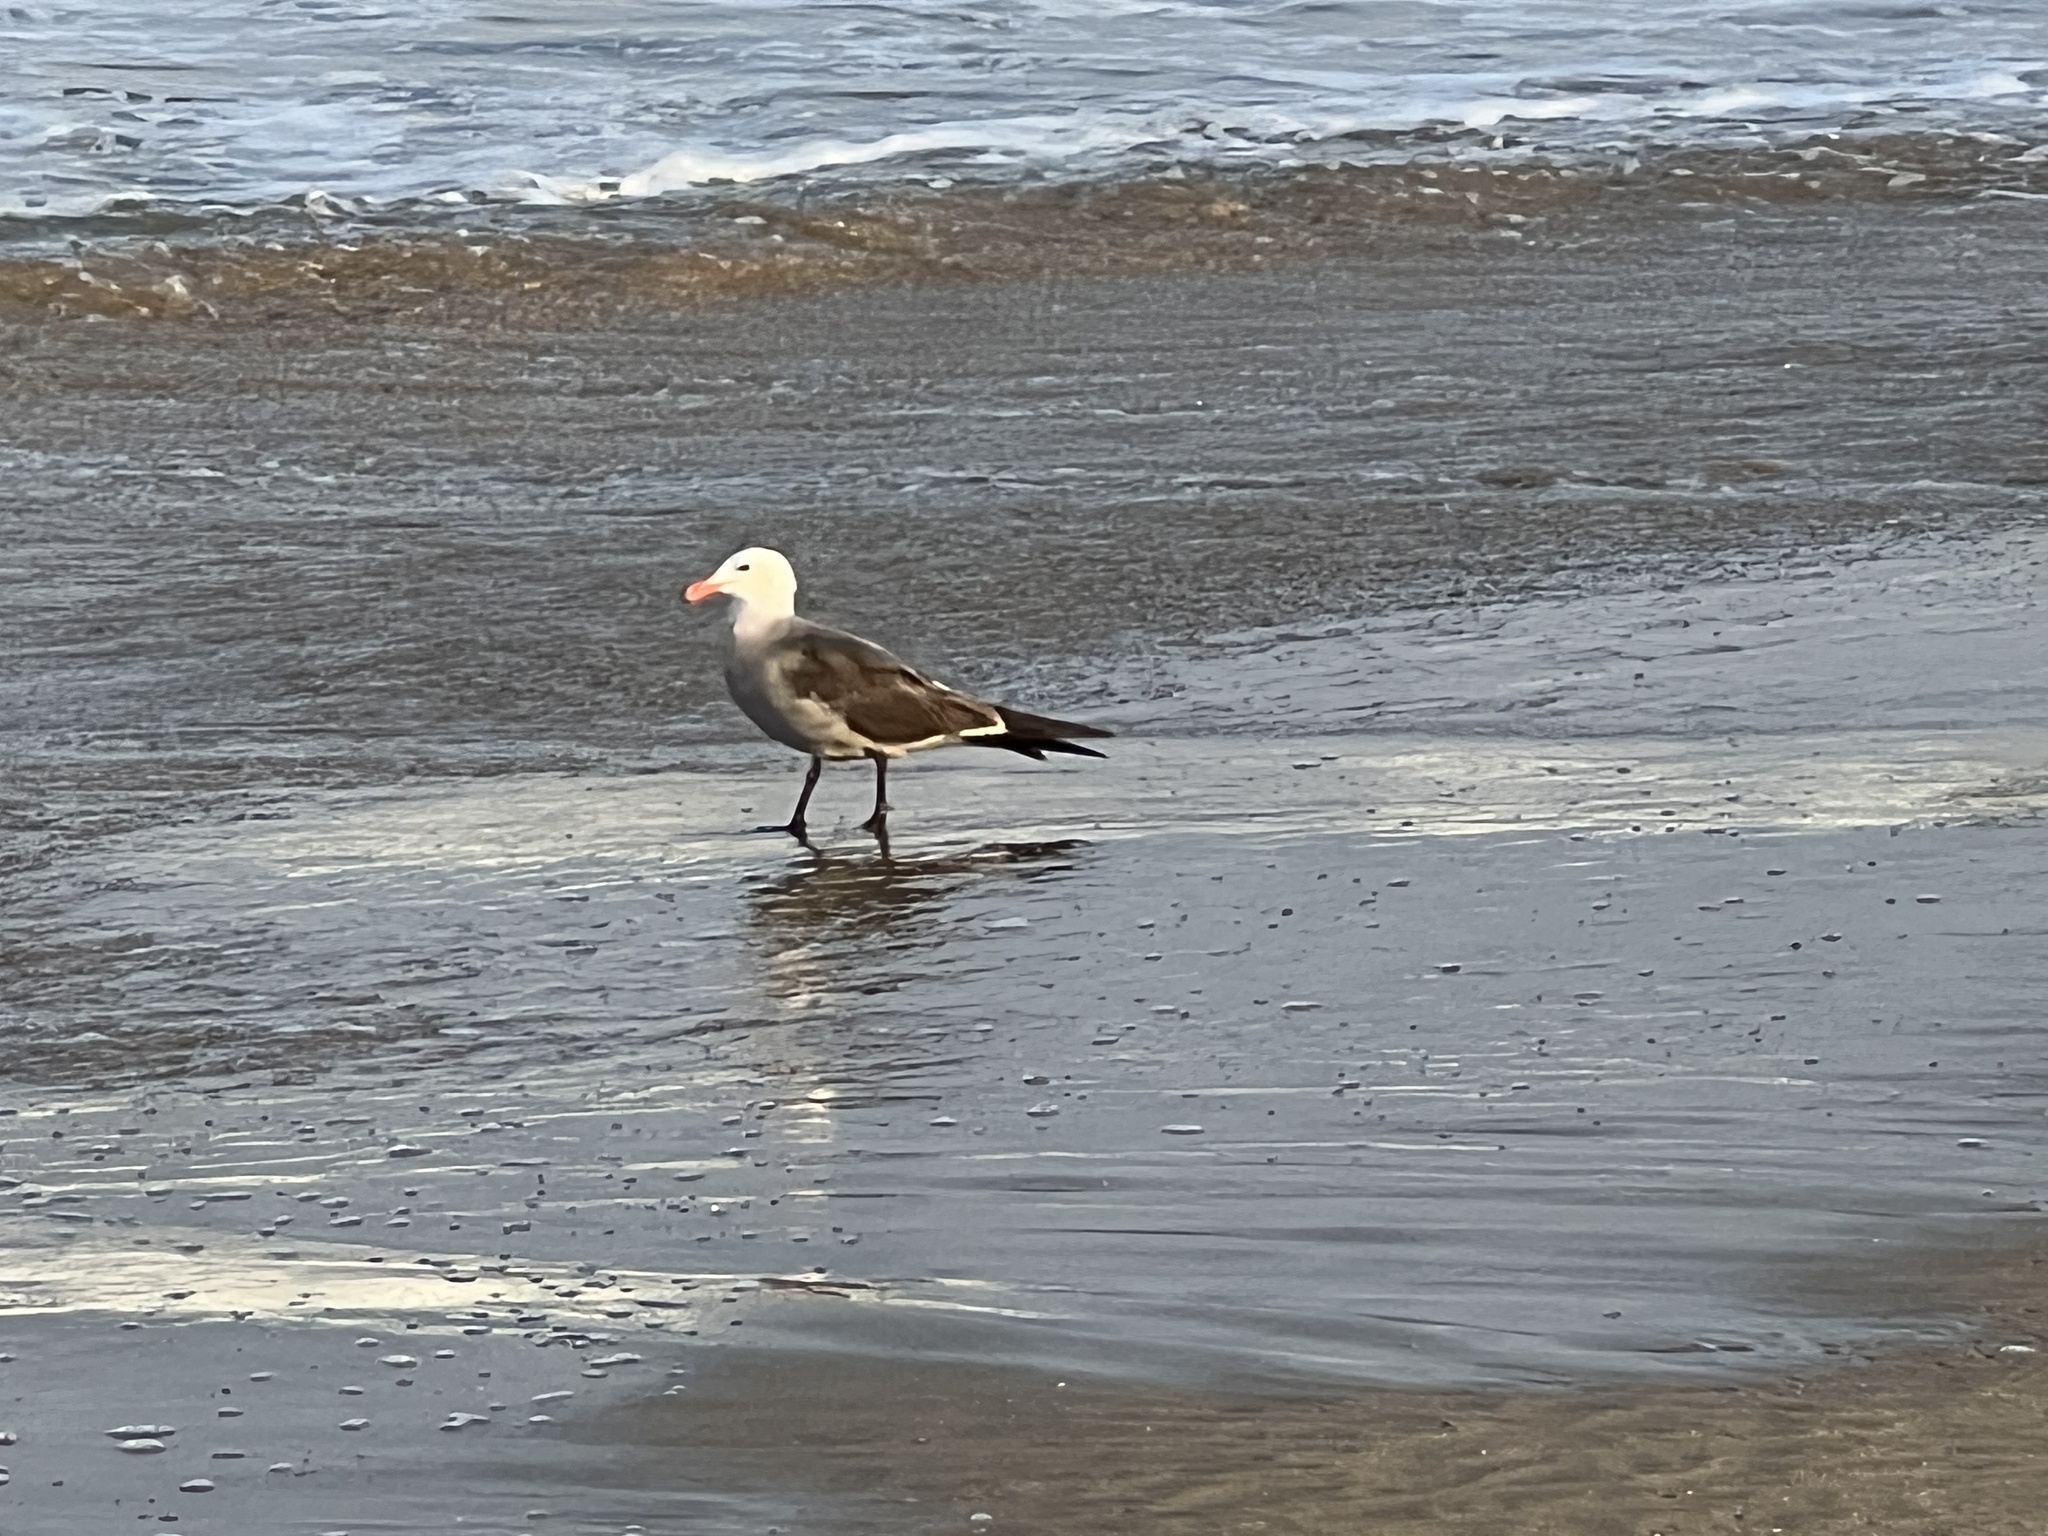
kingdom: Animalia
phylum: Chordata
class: Aves
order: Charadriiformes
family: Laridae
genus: Larus
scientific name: Larus heermanni
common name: Heermann's gull
